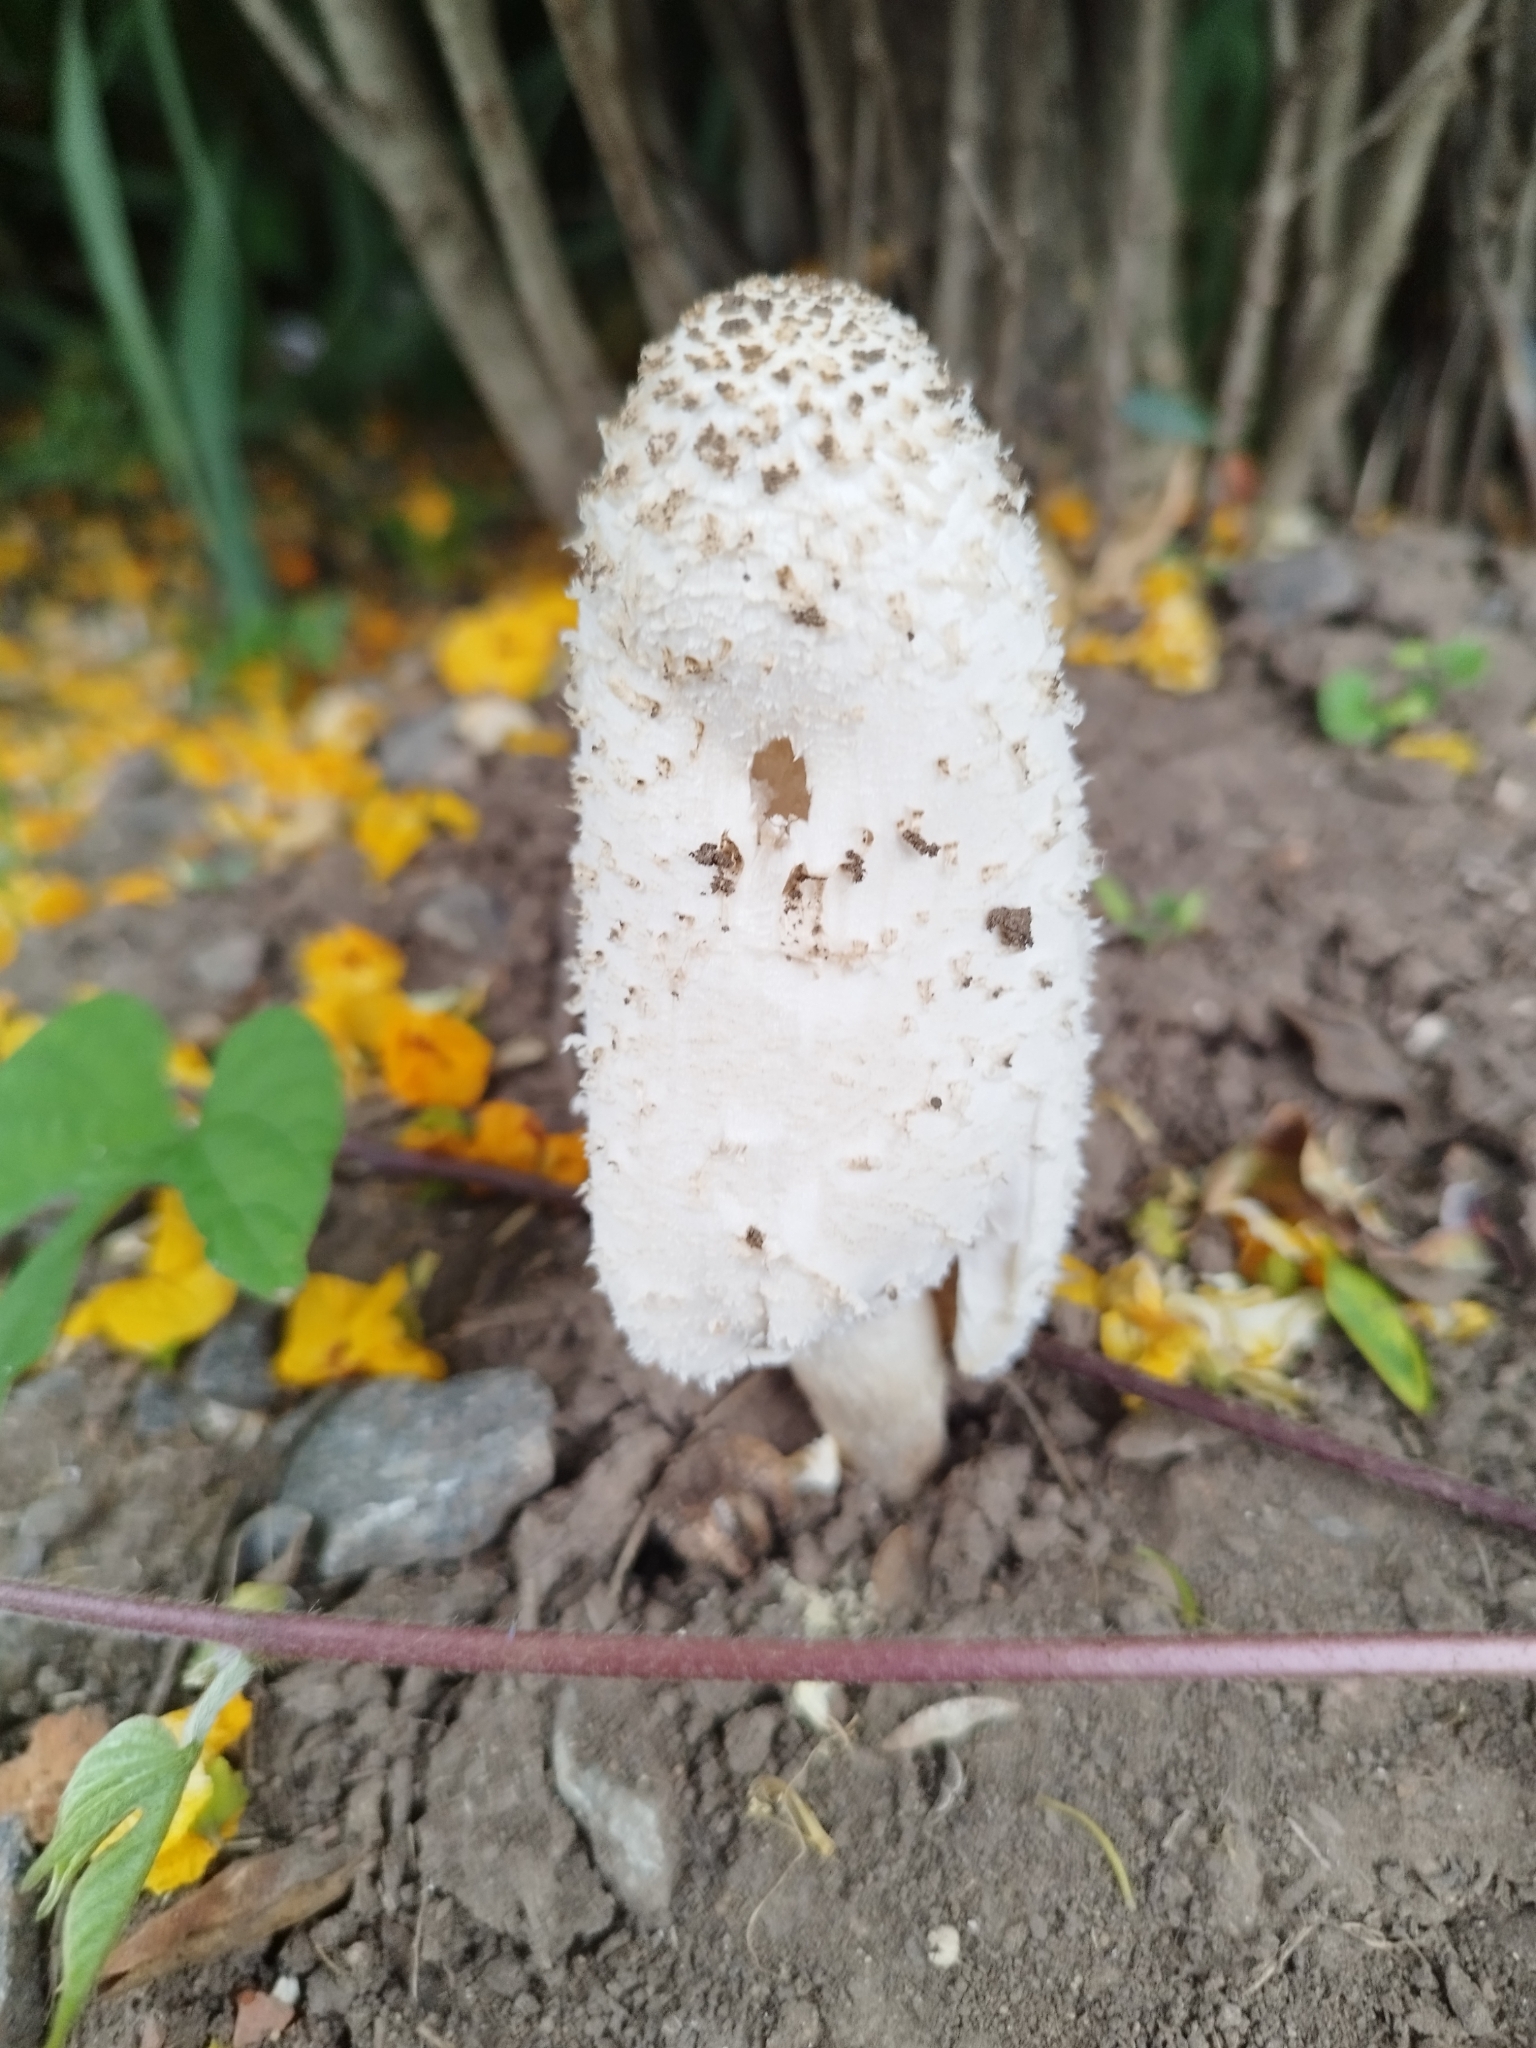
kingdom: Fungi
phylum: Basidiomycota
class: Agaricomycetes
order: Agaricales
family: Agaricaceae
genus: Coprinus
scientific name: Coprinus comatus
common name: Lawyer's wig
